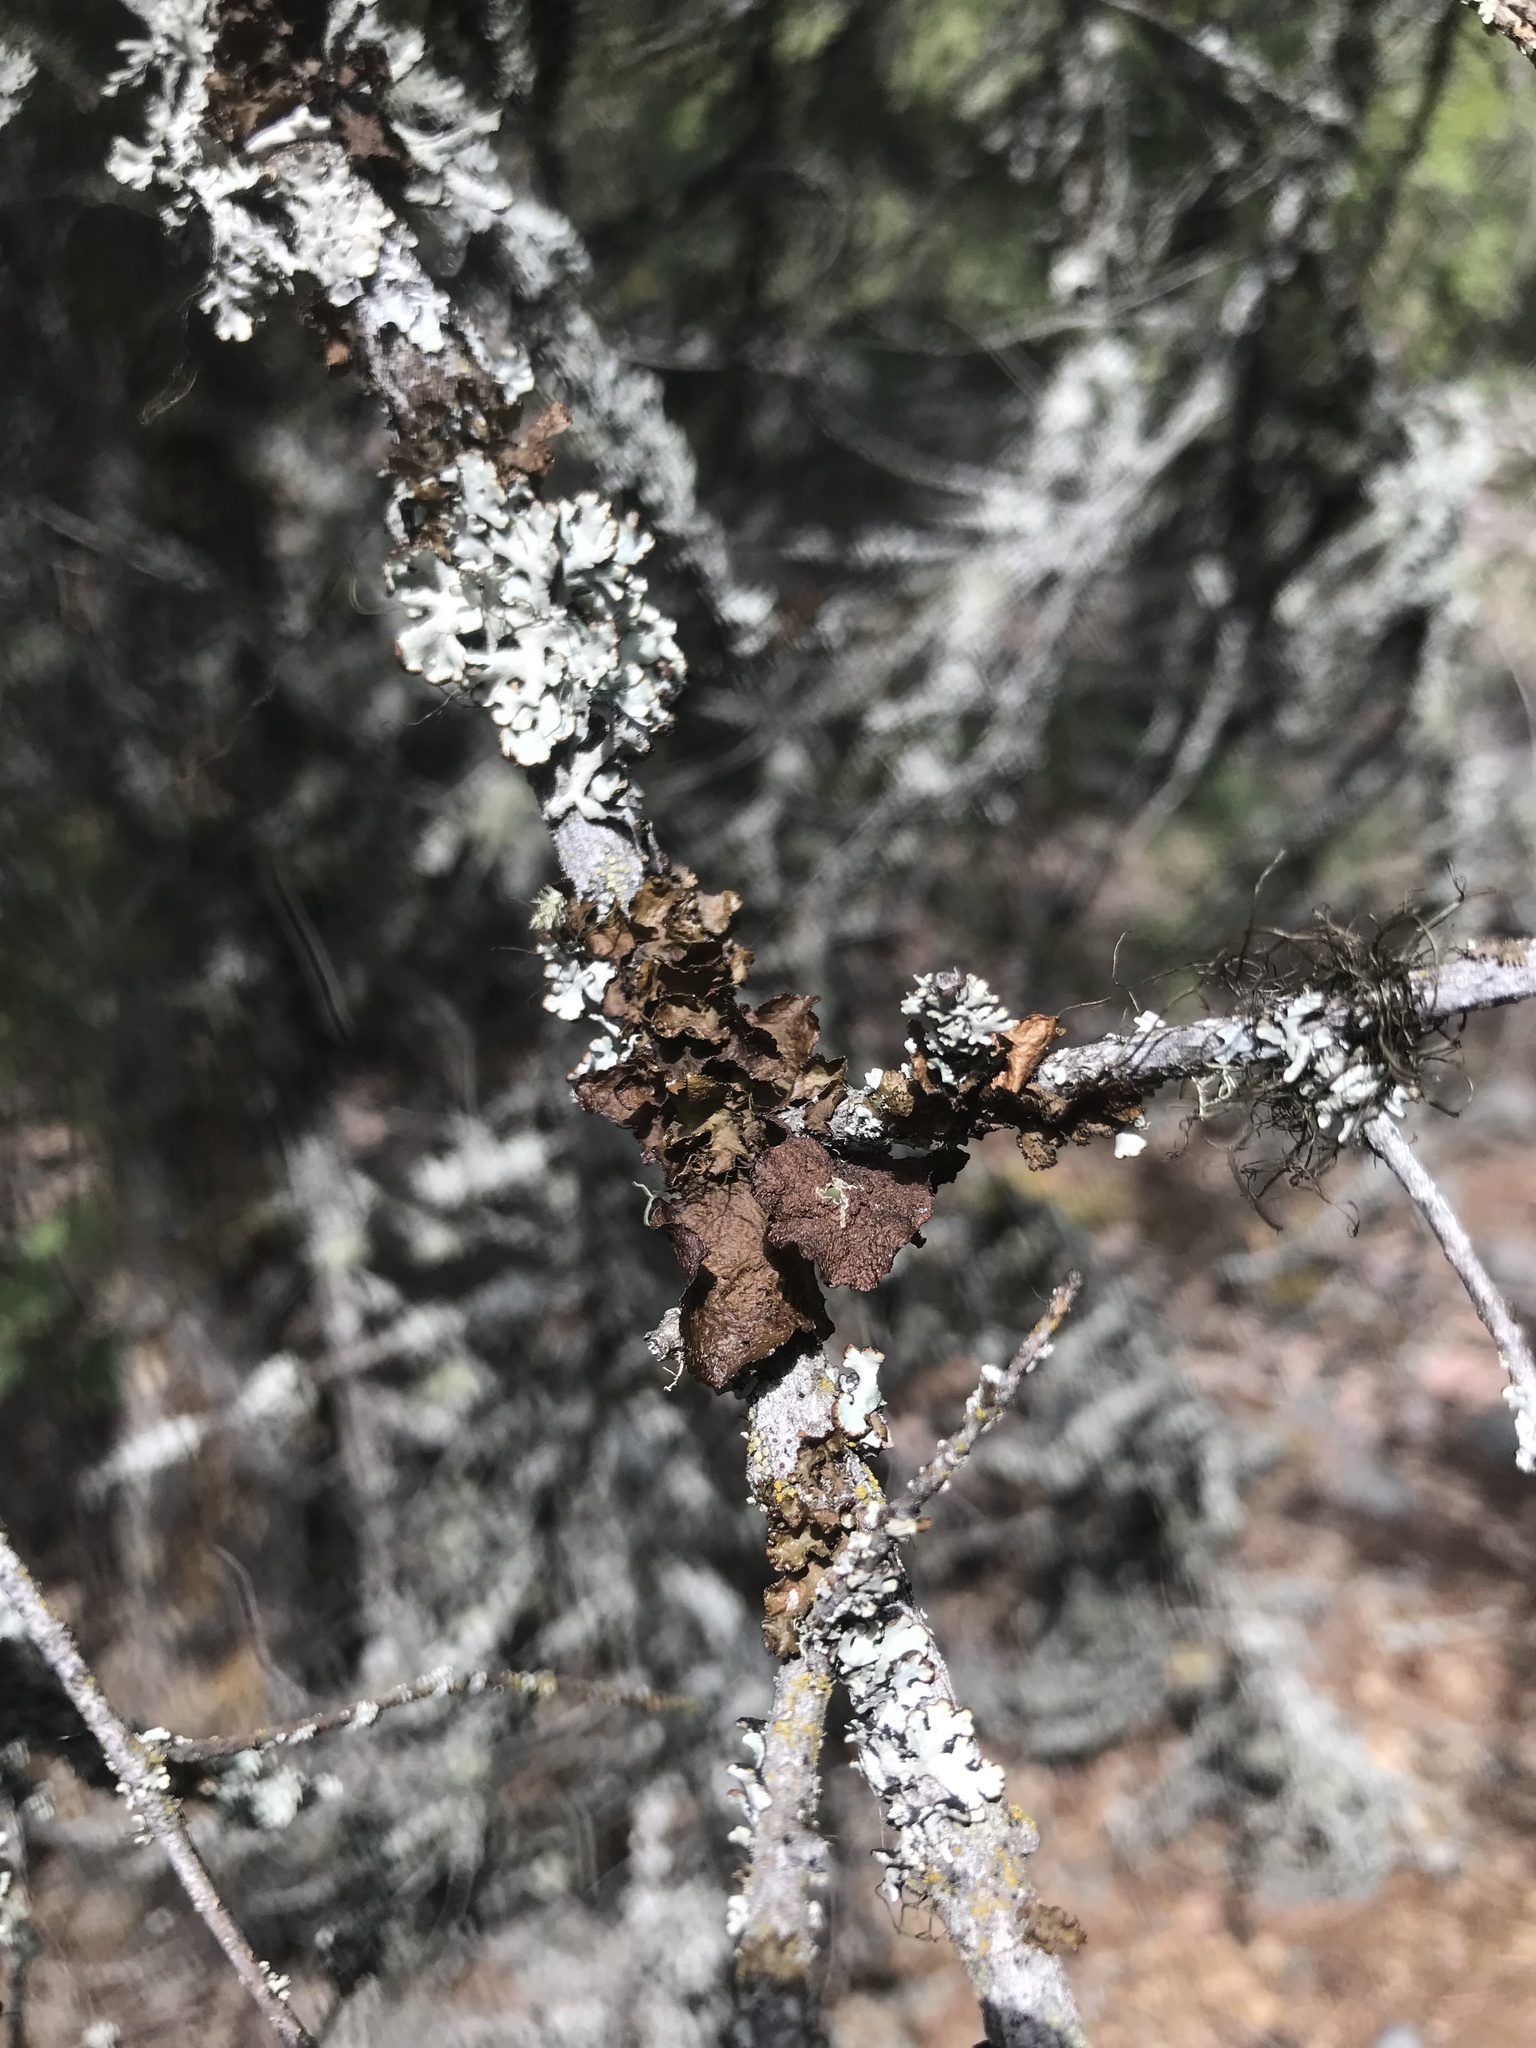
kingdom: Fungi
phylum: Ascomycota
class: Lecanoromycetes
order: Lecanorales
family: Parmeliaceae
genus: Nephromopsis
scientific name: Nephromopsis orbata
